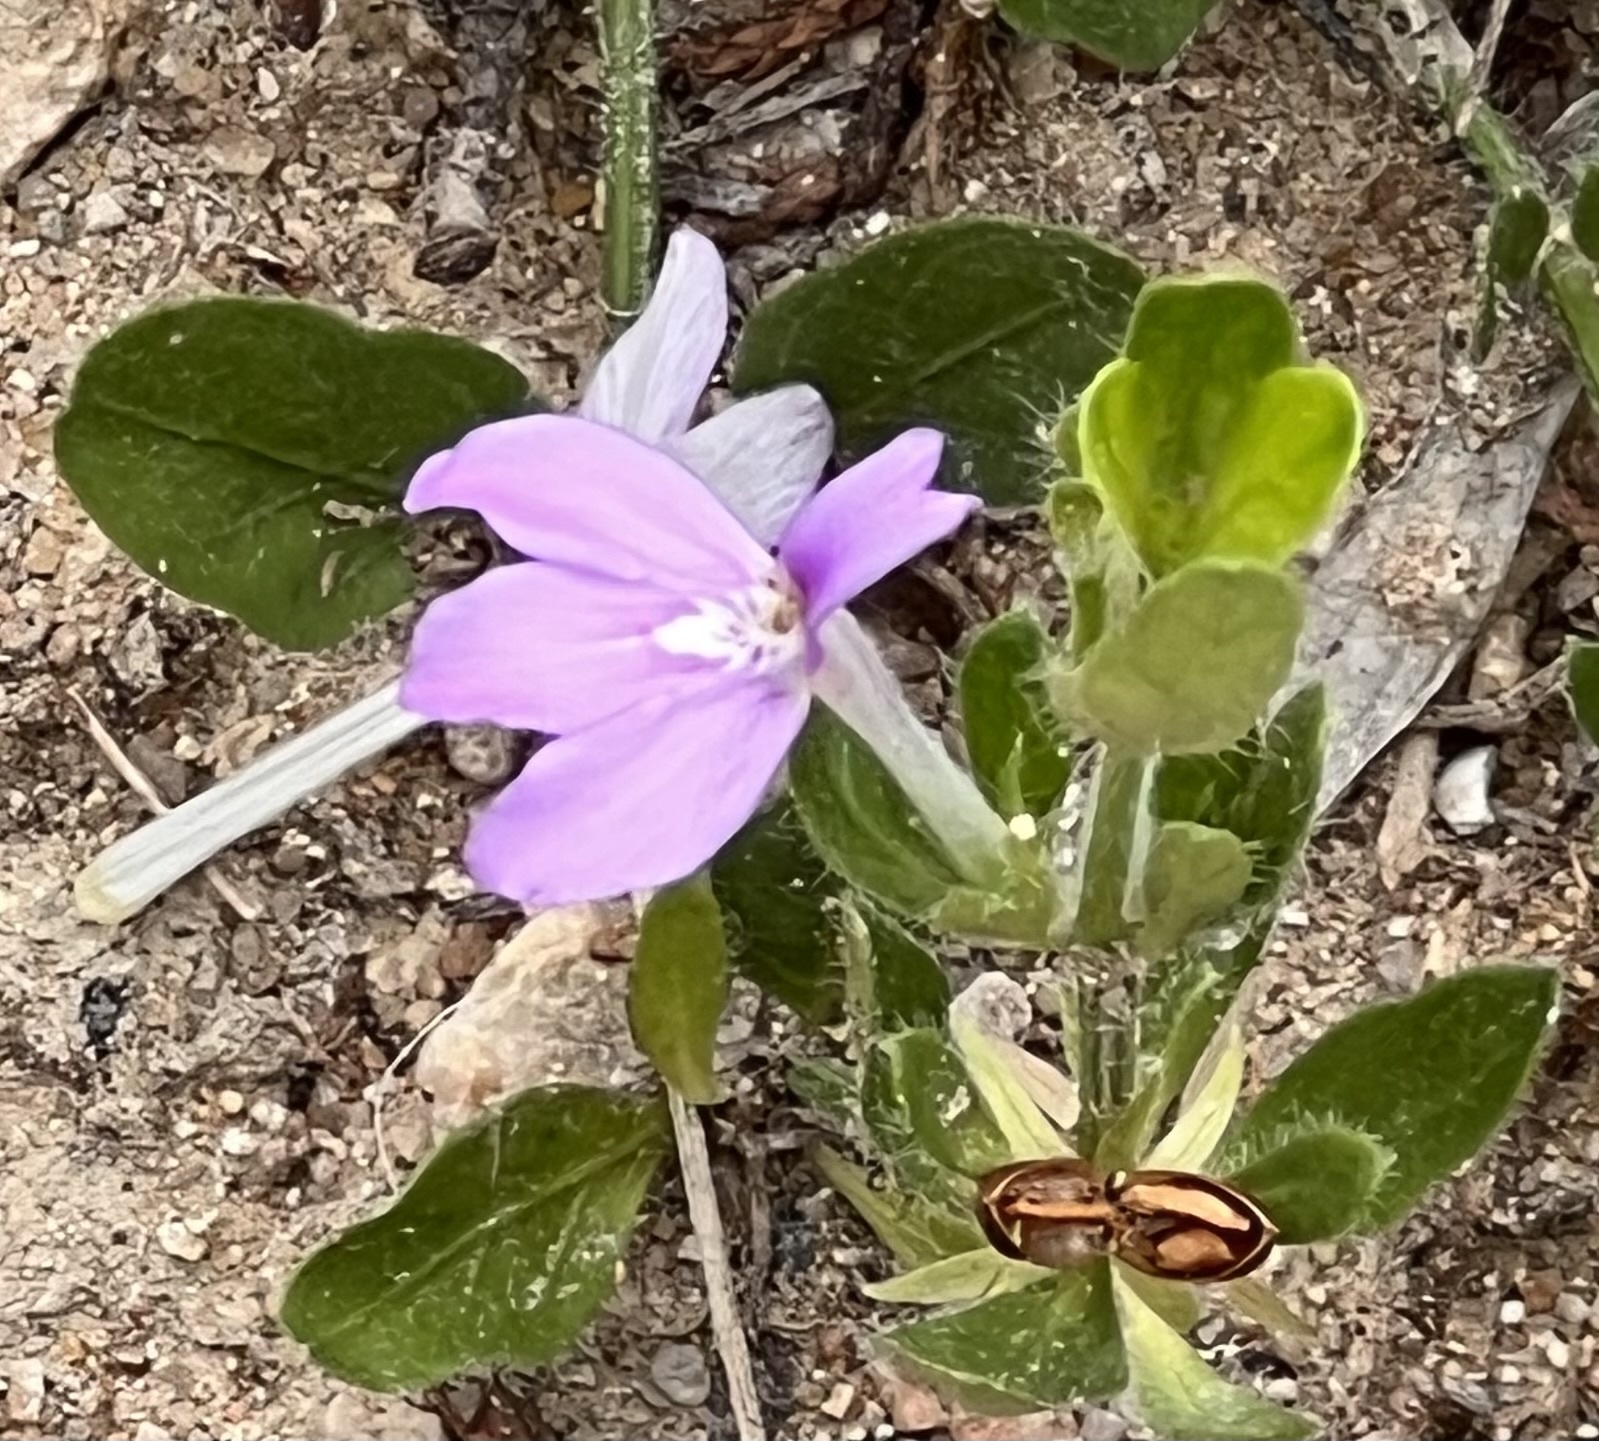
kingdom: Plantae
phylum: Tracheophyta
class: Magnoliopsida
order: Lamiales
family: Acanthaceae
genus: Justicia
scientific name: Justicia pilosella
